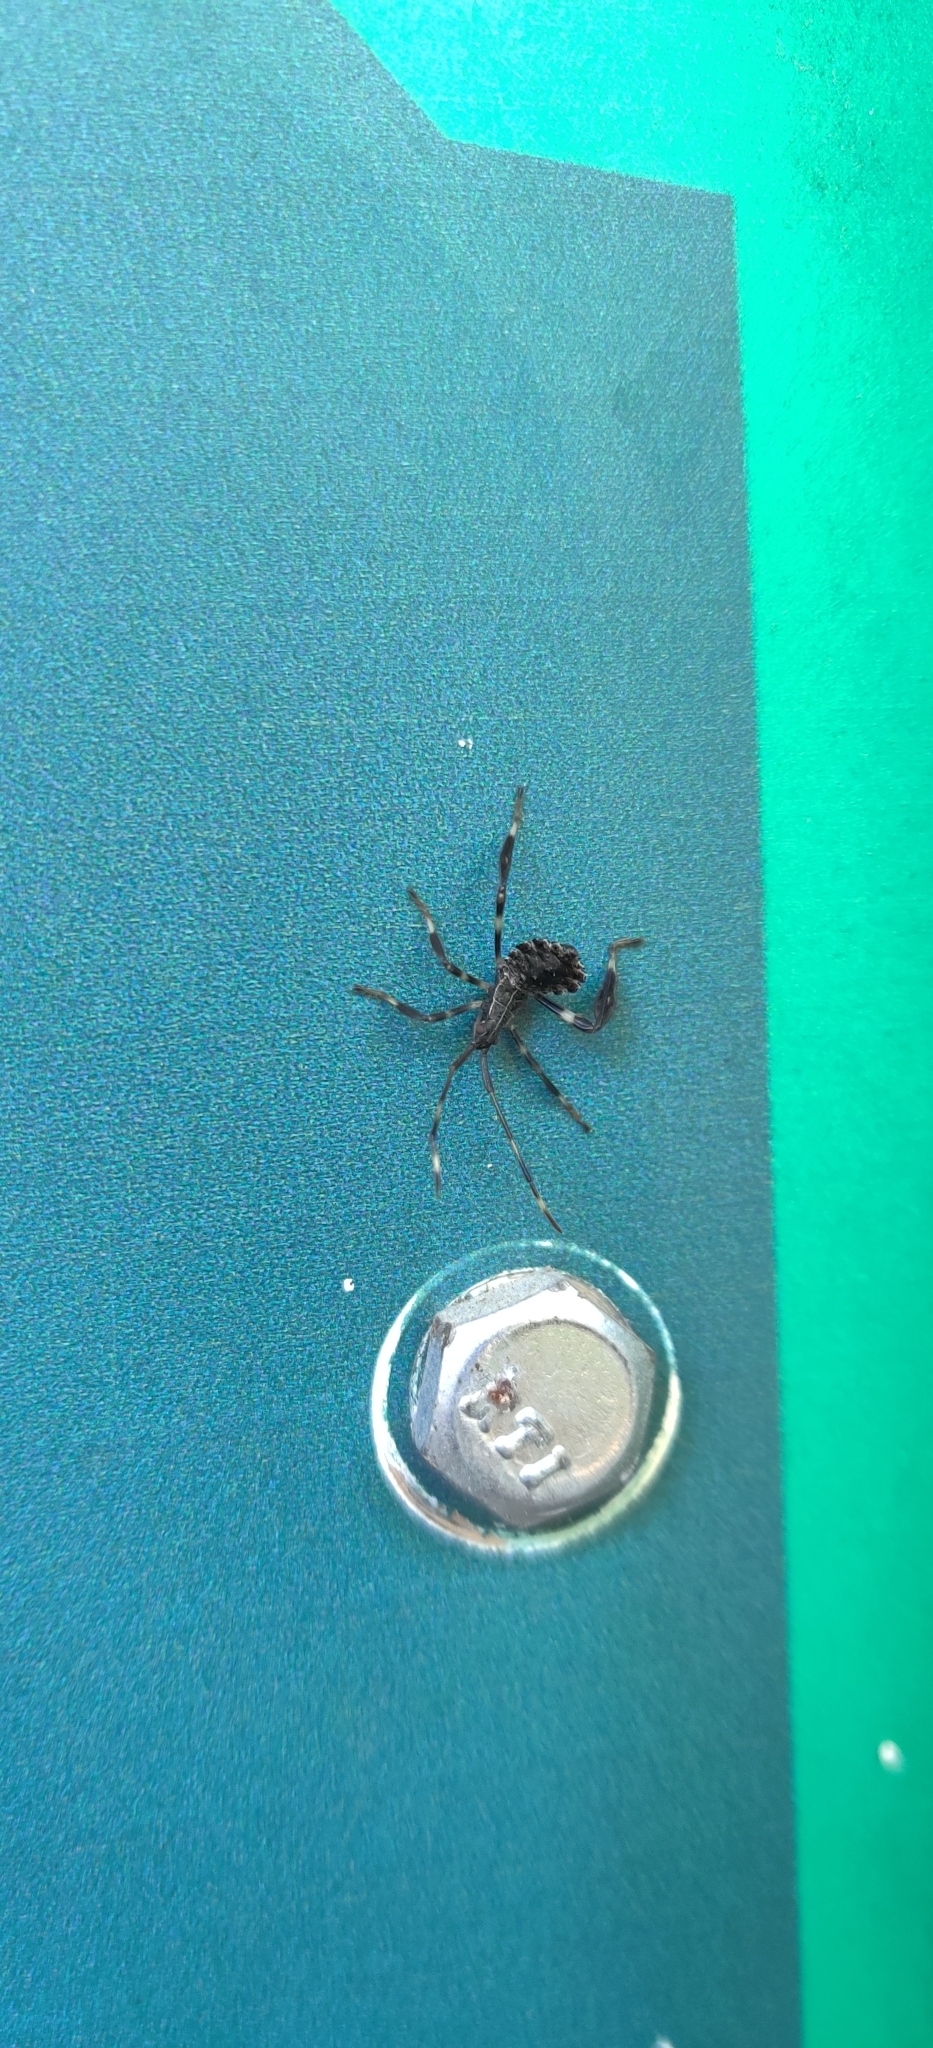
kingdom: Animalia
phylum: Arthropoda
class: Insecta
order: Hemiptera
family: Coreidae
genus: Acanthocephala
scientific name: Acanthocephala terminalis
